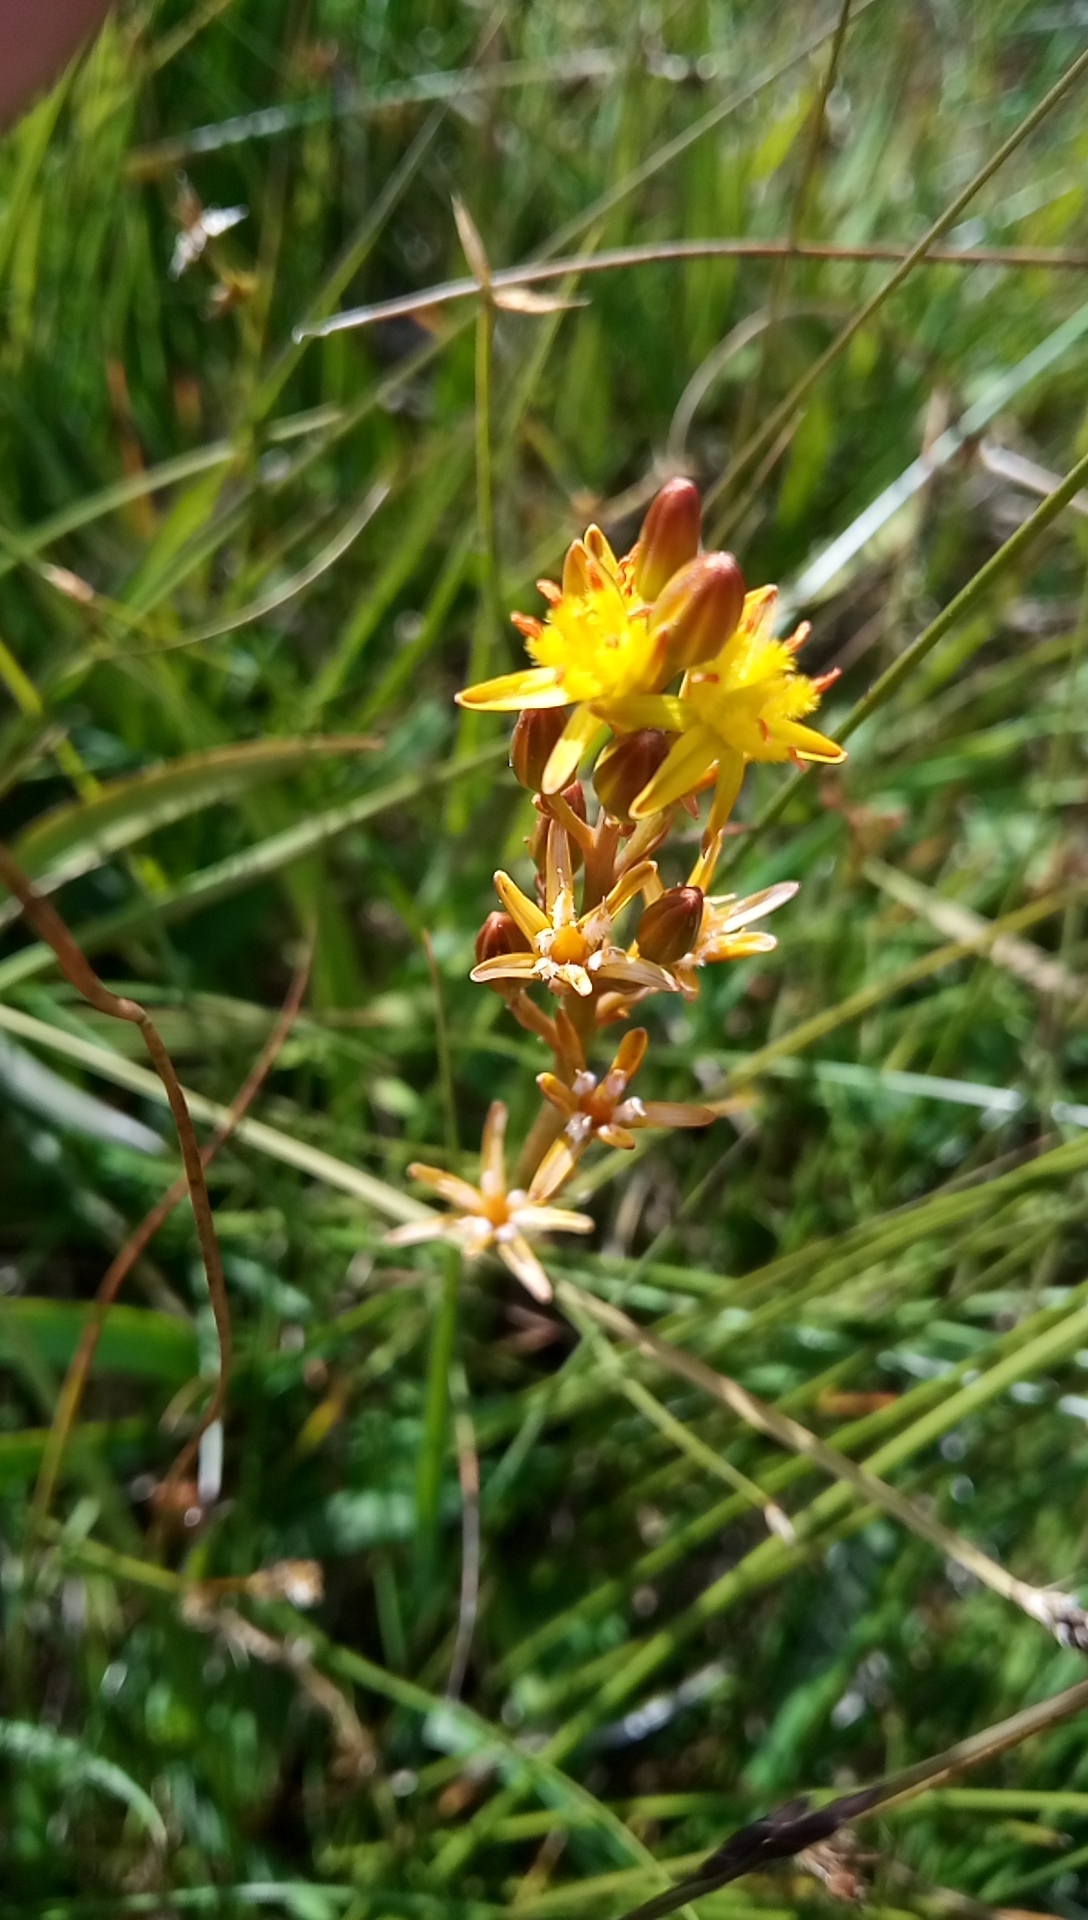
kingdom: Plantae
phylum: Tracheophyta
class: Liliopsida
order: Dioscoreales
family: Nartheciaceae
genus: Narthecium
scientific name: Narthecium ossifragum
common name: Bog asphodel
